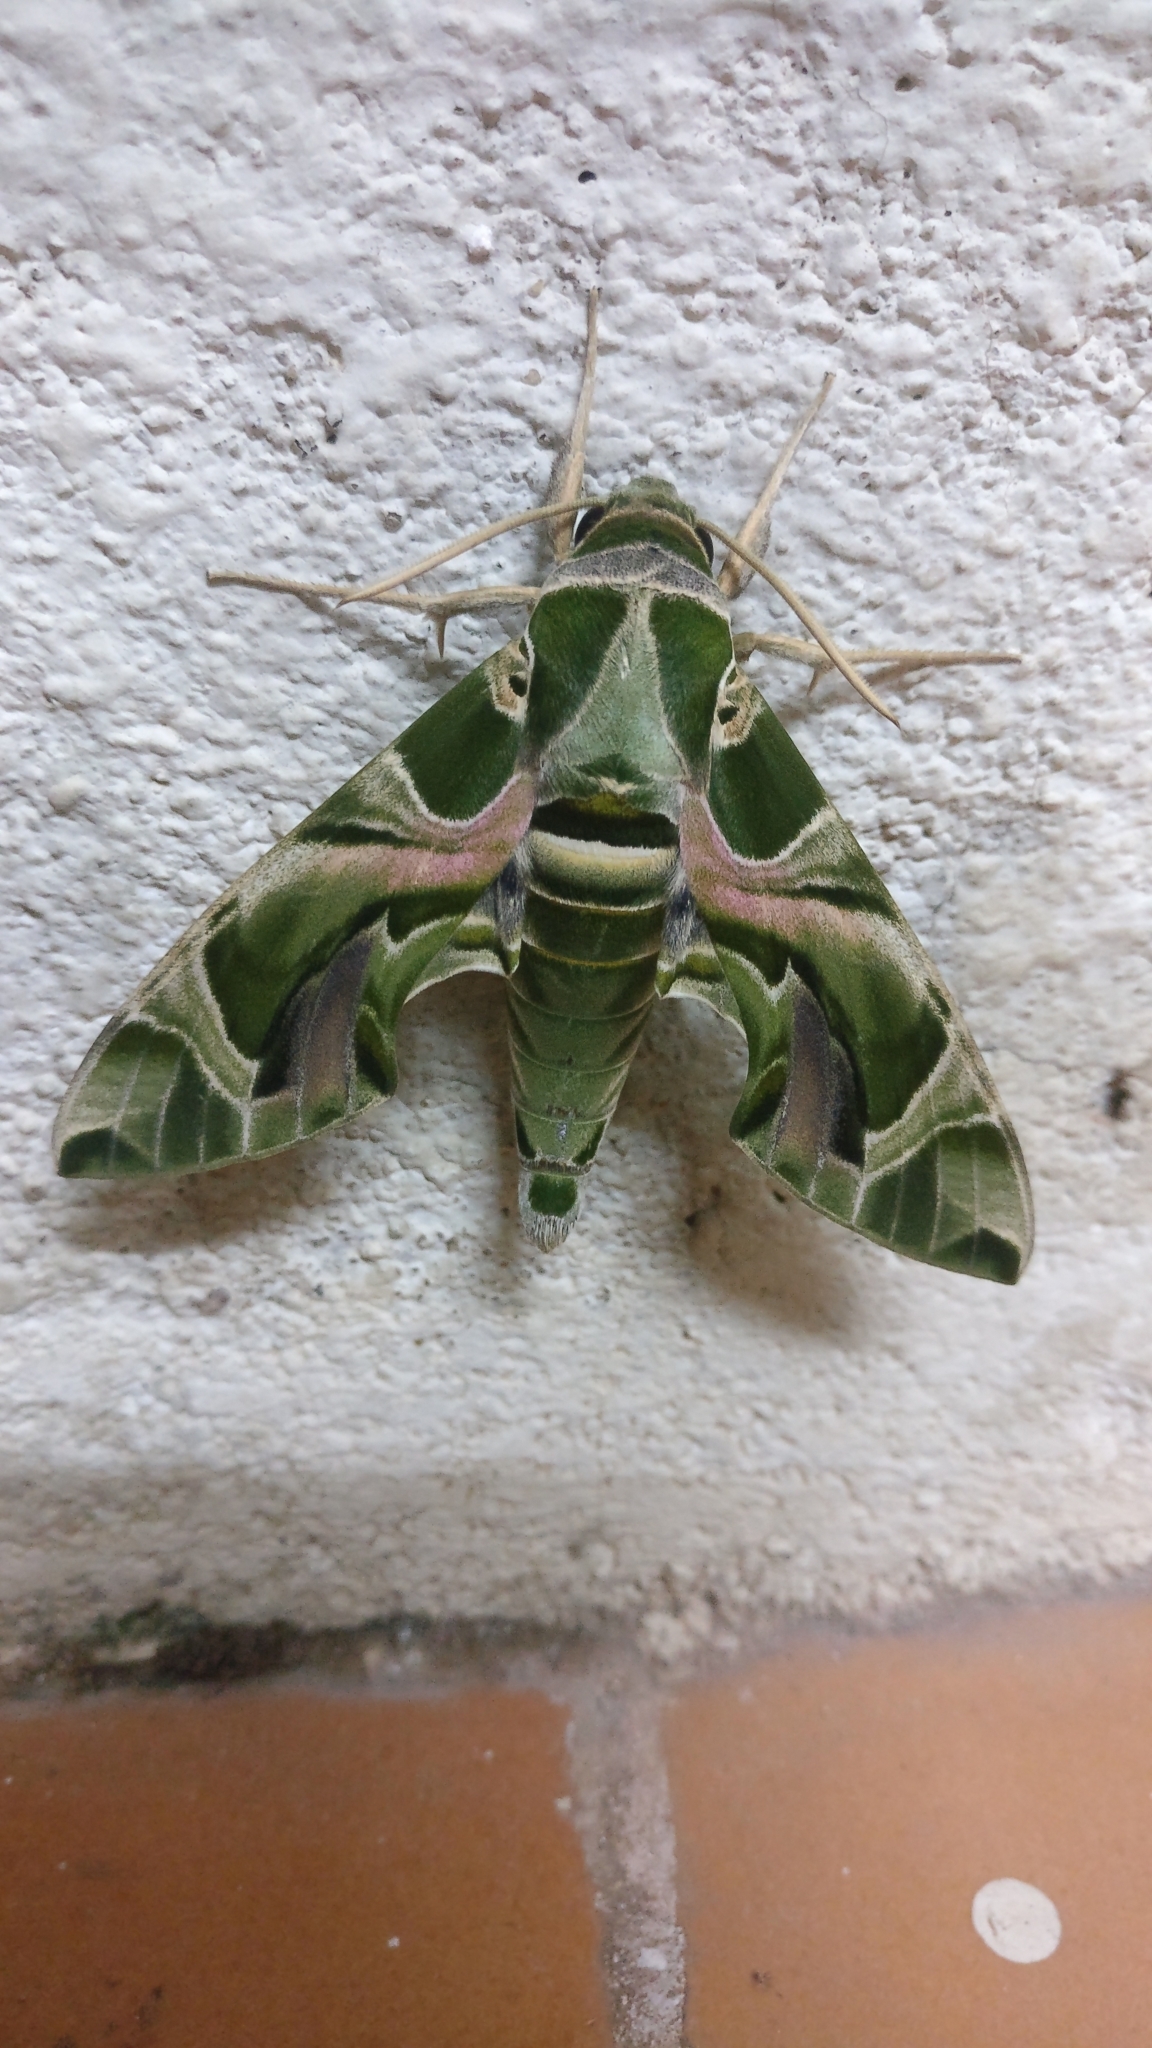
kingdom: Animalia
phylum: Arthropoda
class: Insecta
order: Lepidoptera
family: Sphingidae
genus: Daphnis
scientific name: Daphnis nerii
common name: Oleander hawk-moth
